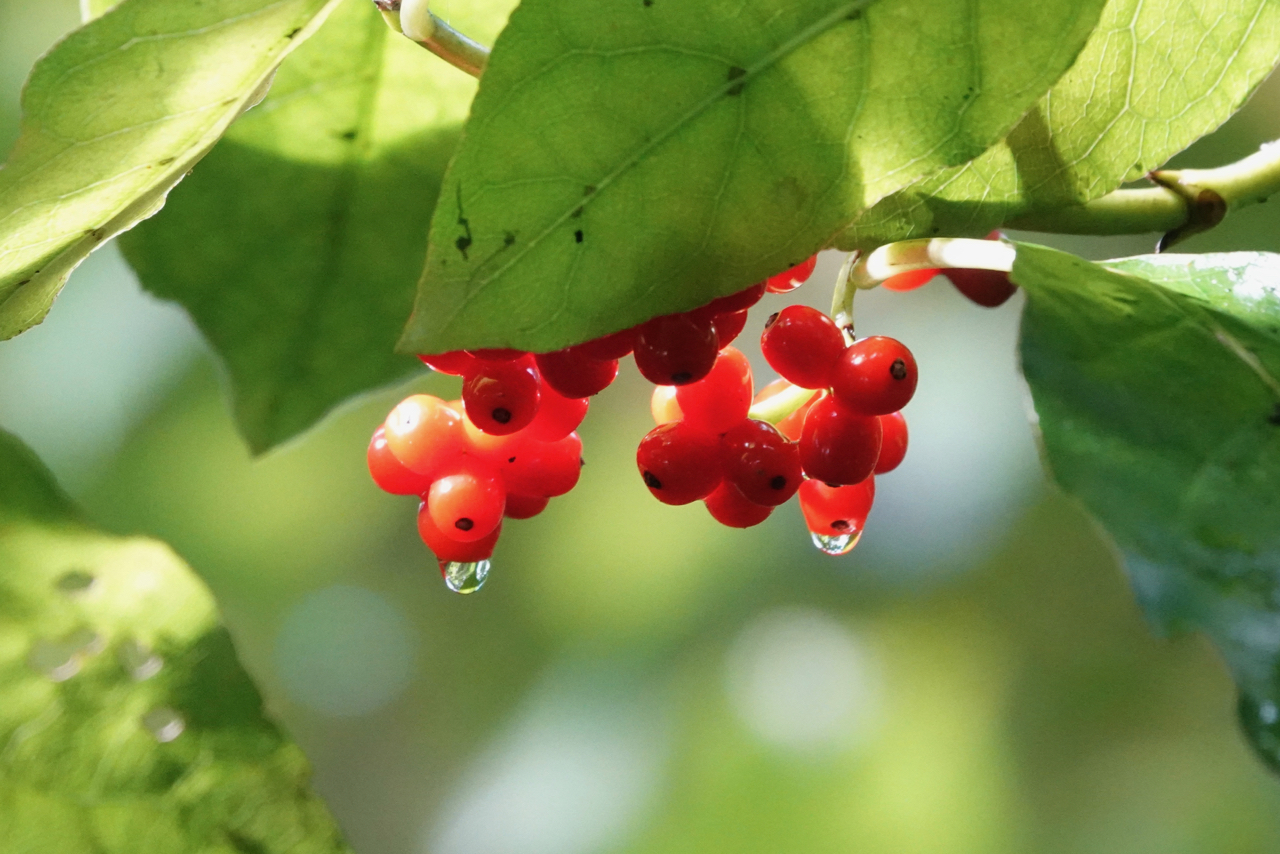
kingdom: Plantae
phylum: Tracheophyta
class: Magnoliopsida
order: Gentianales
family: Rubiaceae
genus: Coprosma
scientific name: Coprosma autumnalis
